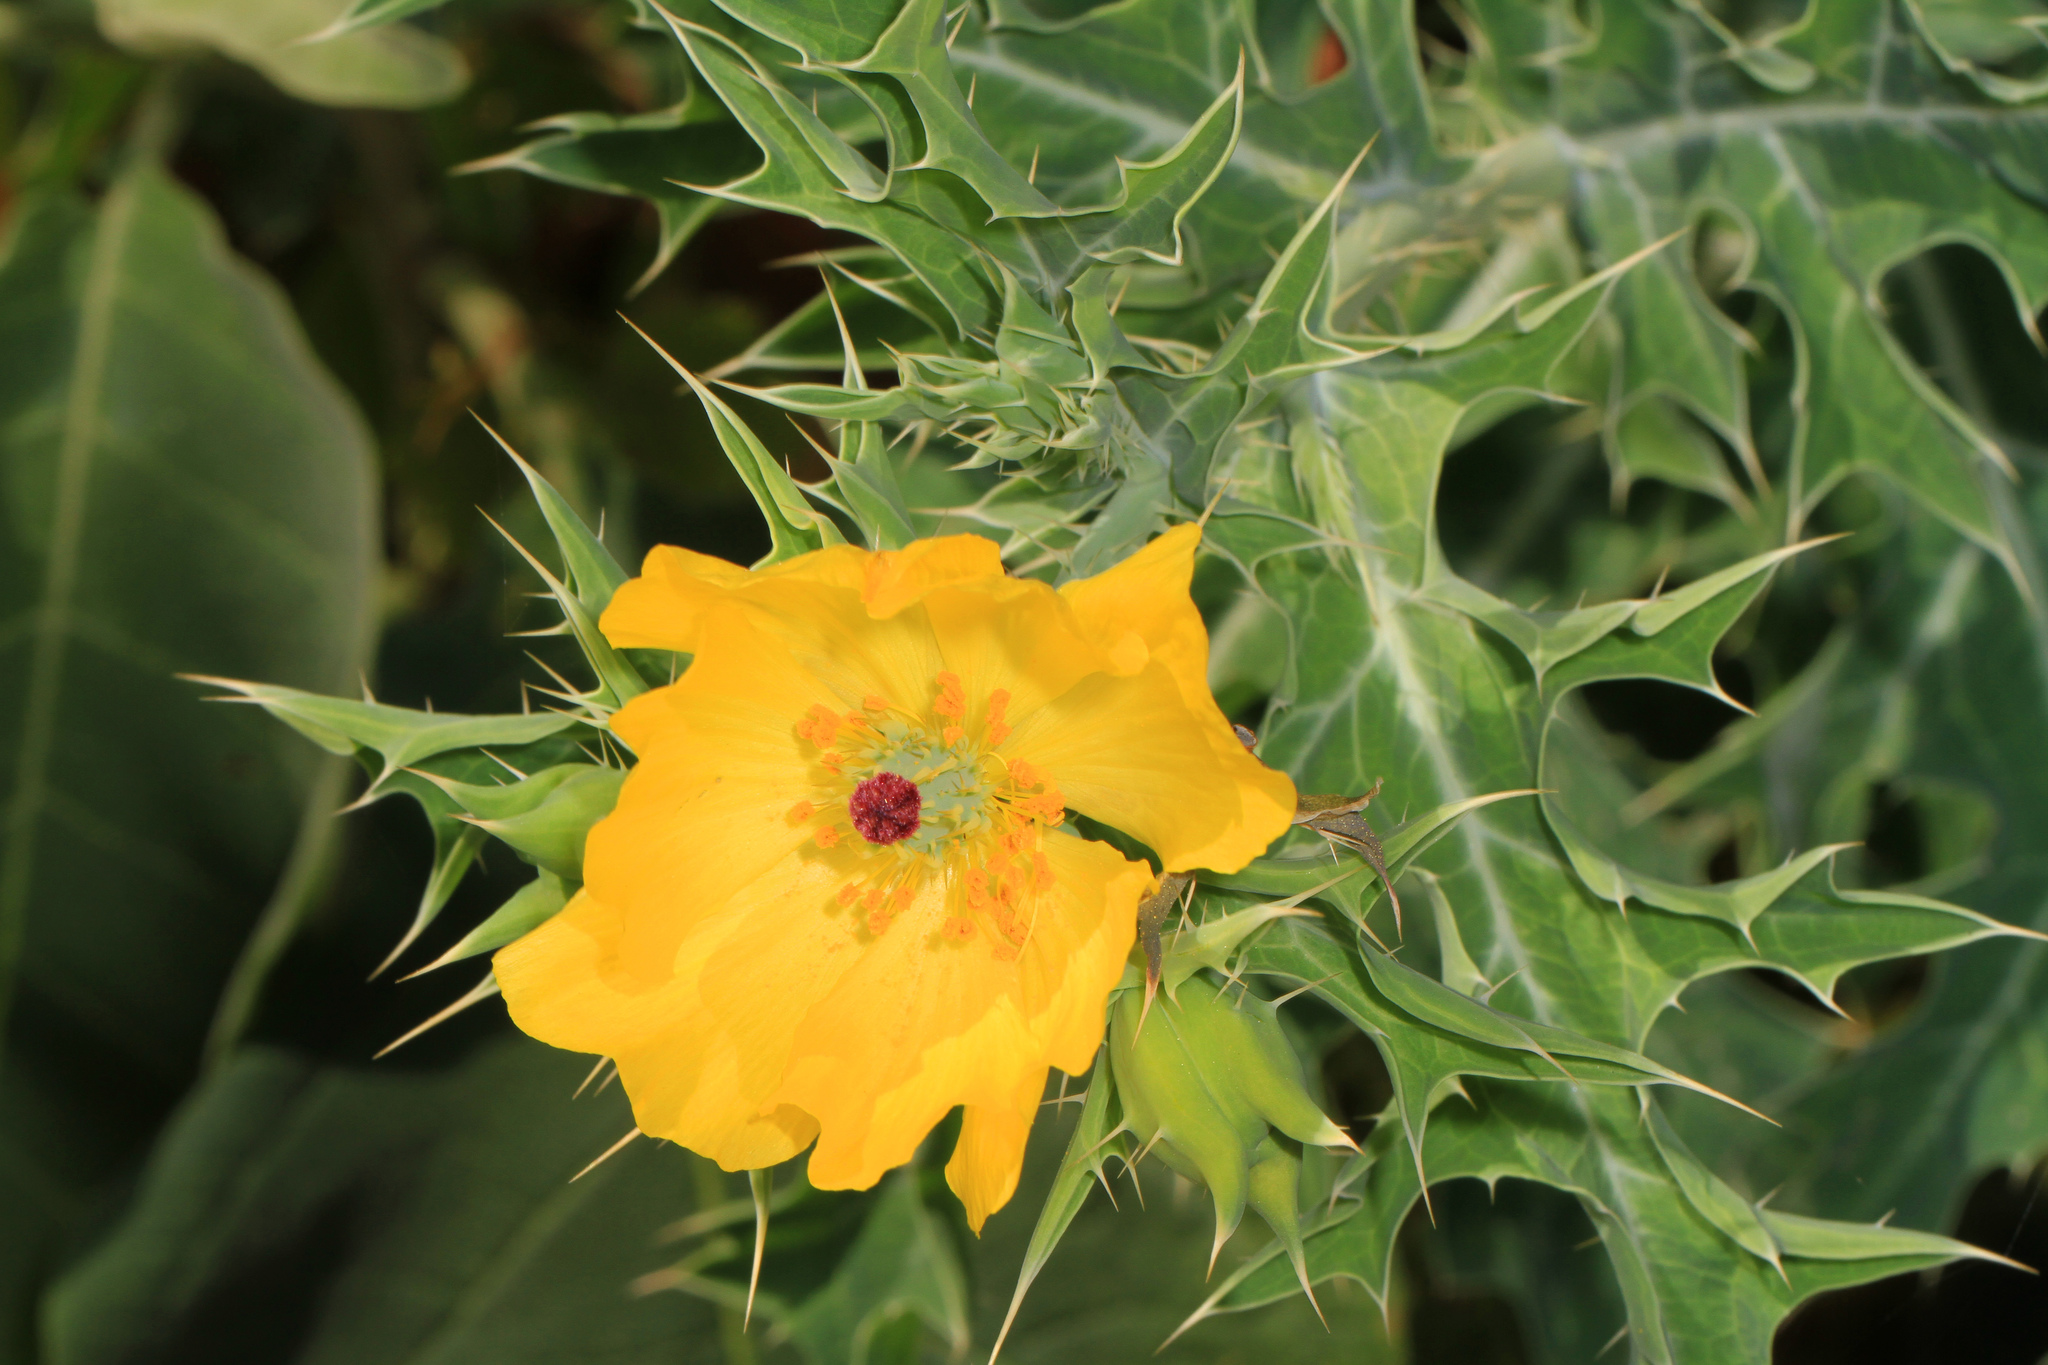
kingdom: Plantae
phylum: Tracheophyta
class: Magnoliopsida
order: Ranunculales
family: Papaveraceae
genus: Argemone
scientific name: Argemone mexicana
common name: Mexican poppy
